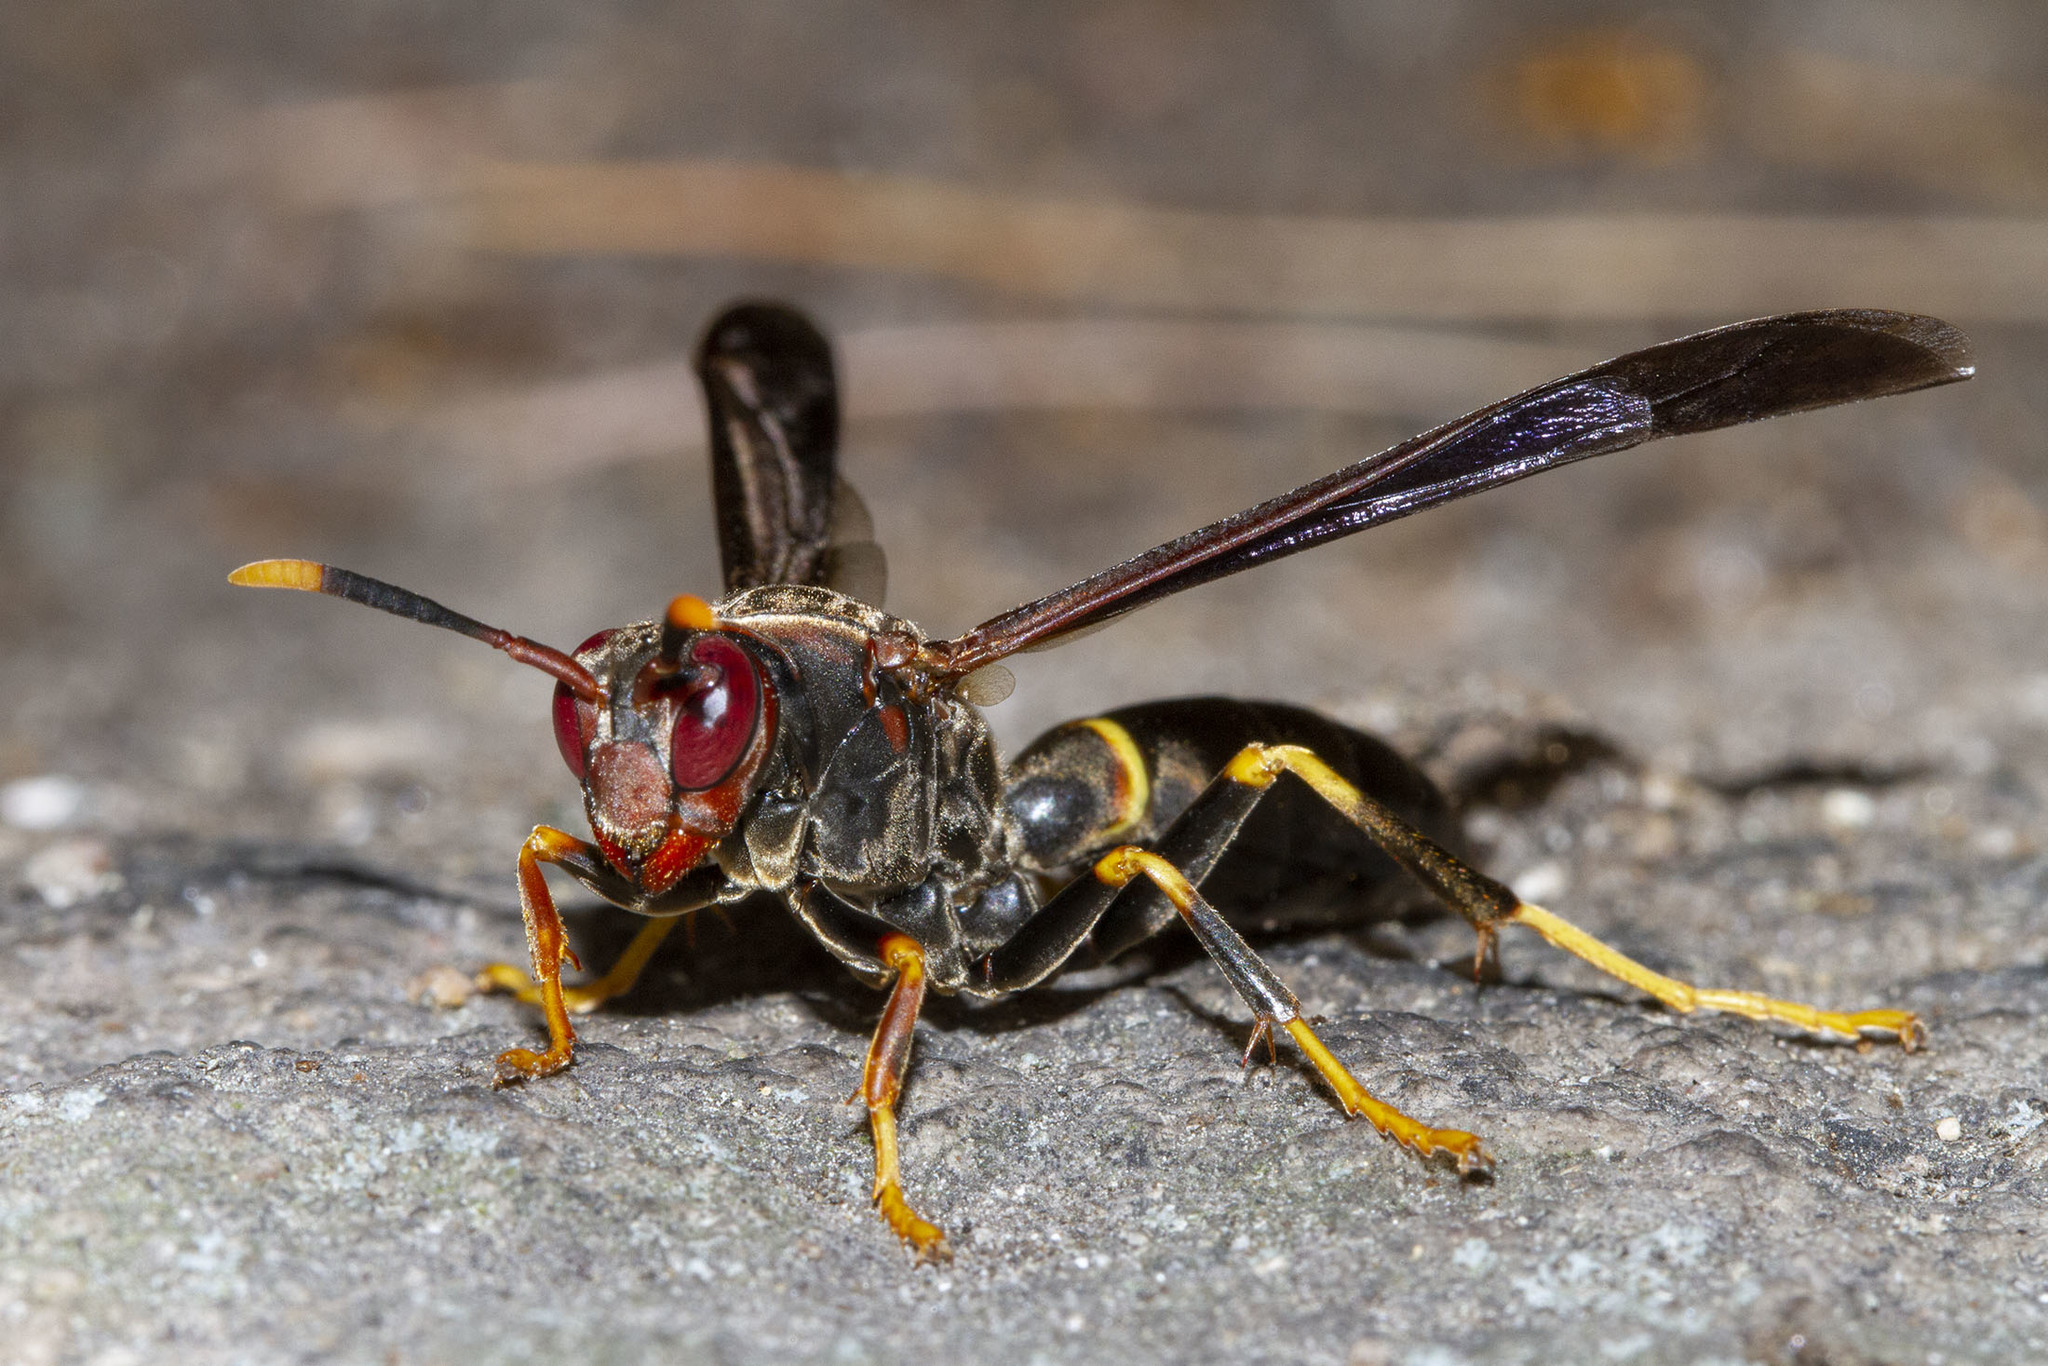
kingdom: Animalia
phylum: Arthropoda
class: Insecta
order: Hymenoptera
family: Eumenidae
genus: Polistes
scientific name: Polistes annularis
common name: Ringed paper wasp
